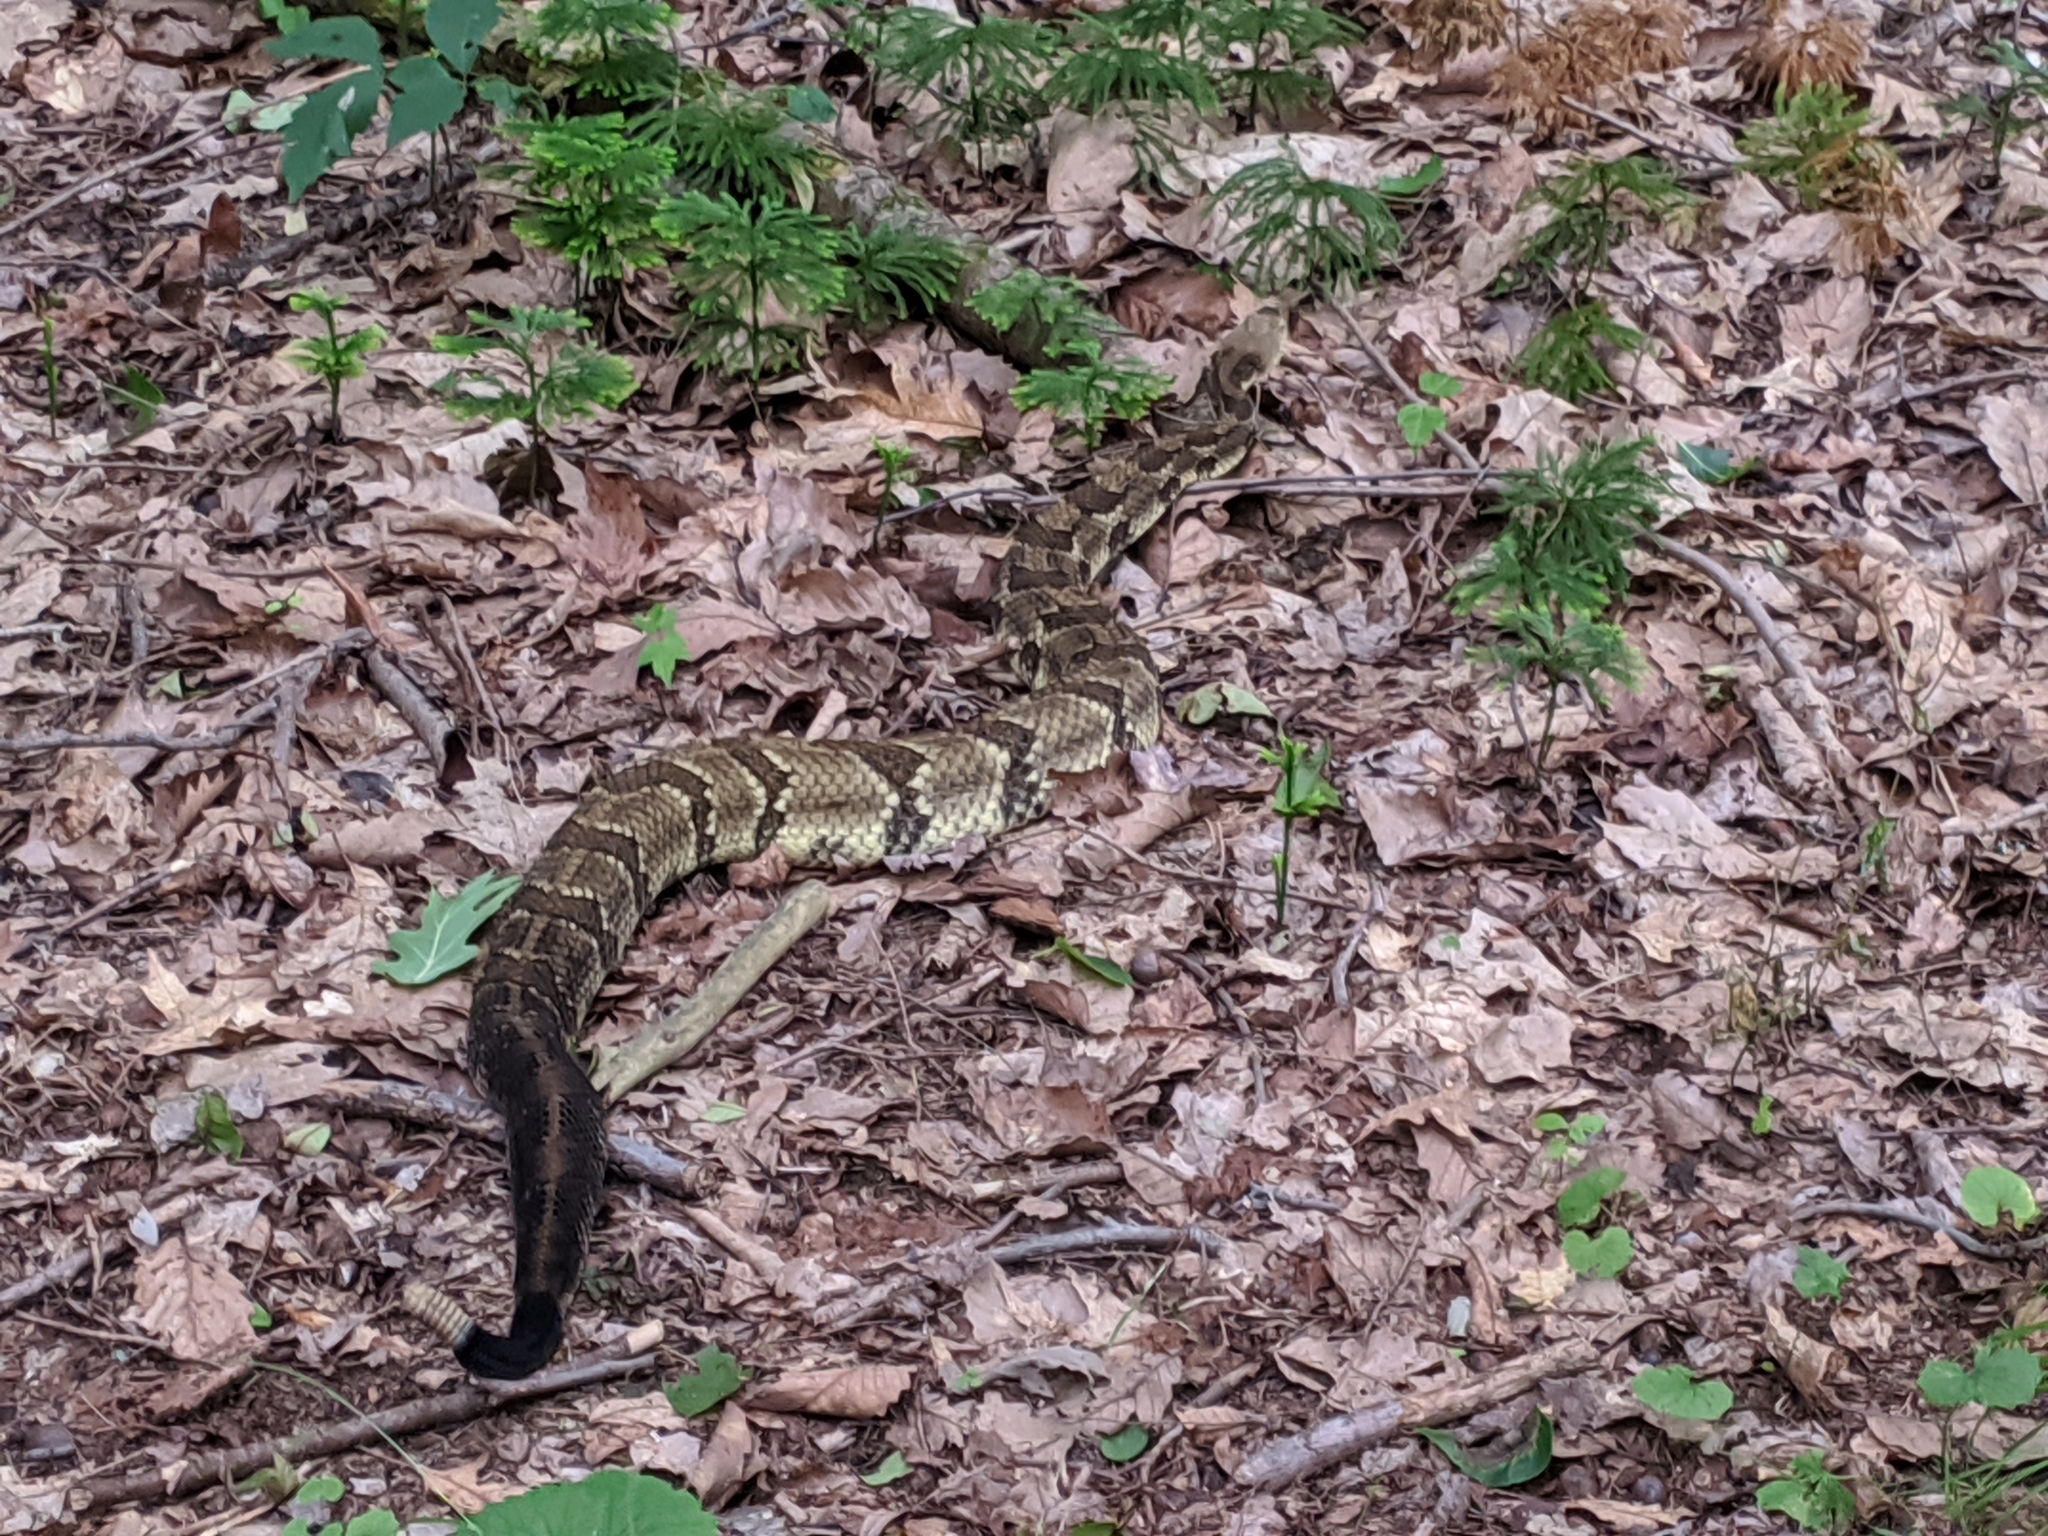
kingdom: Animalia
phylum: Chordata
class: Squamata
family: Viperidae
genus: Crotalus
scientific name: Crotalus horridus
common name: Timber rattlesnake
